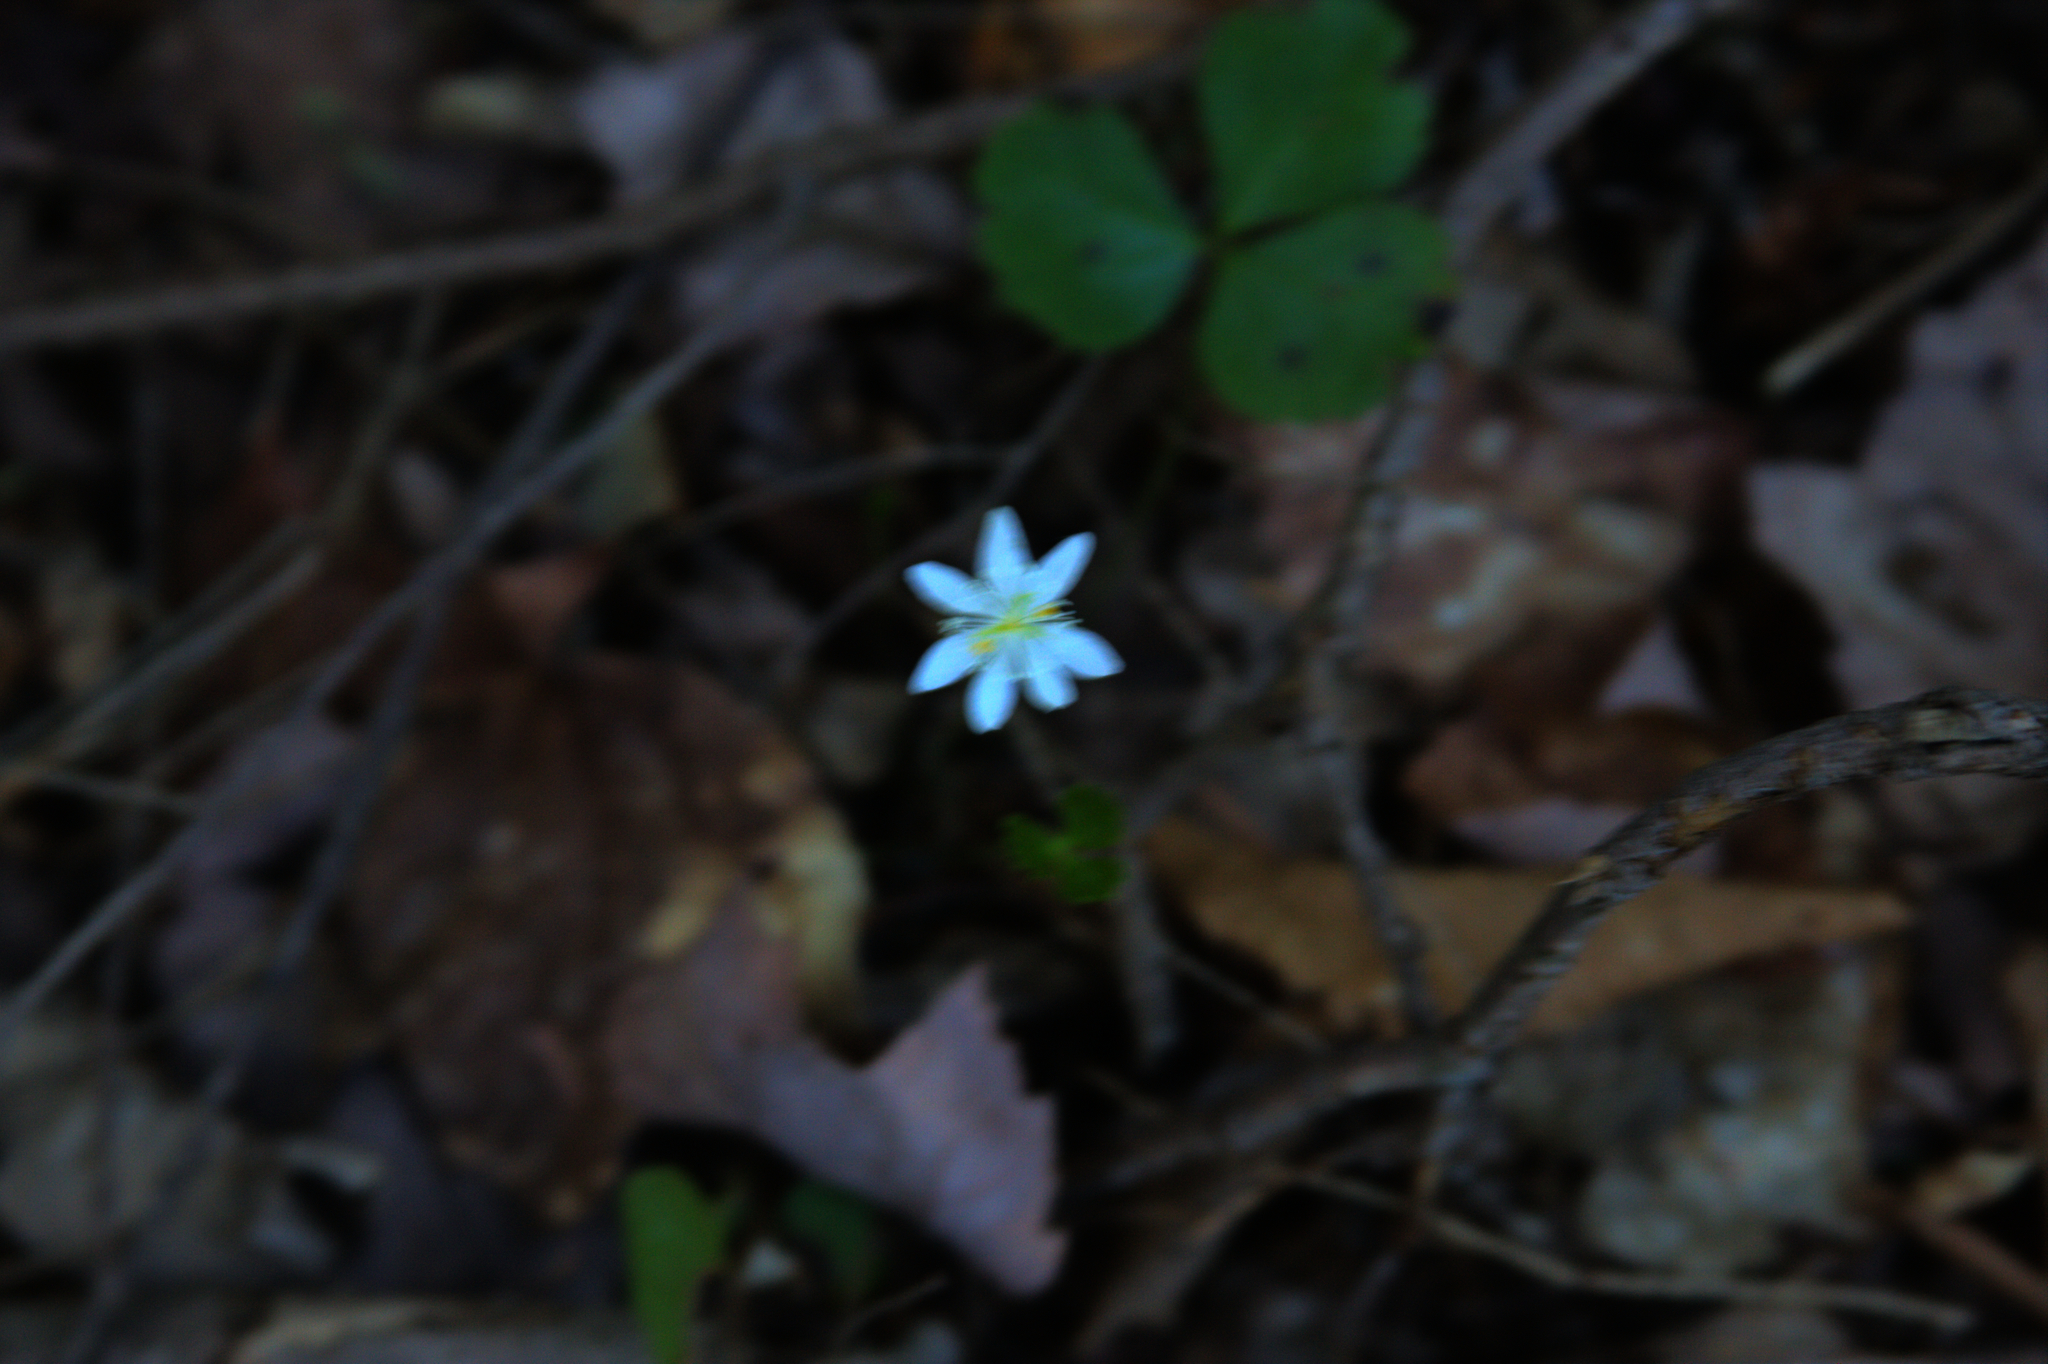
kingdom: Plantae
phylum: Tracheophyta
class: Magnoliopsida
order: Ranunculales
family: Ranunculaceae
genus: Coptis
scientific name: Coptis trifolia
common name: Canker-root
